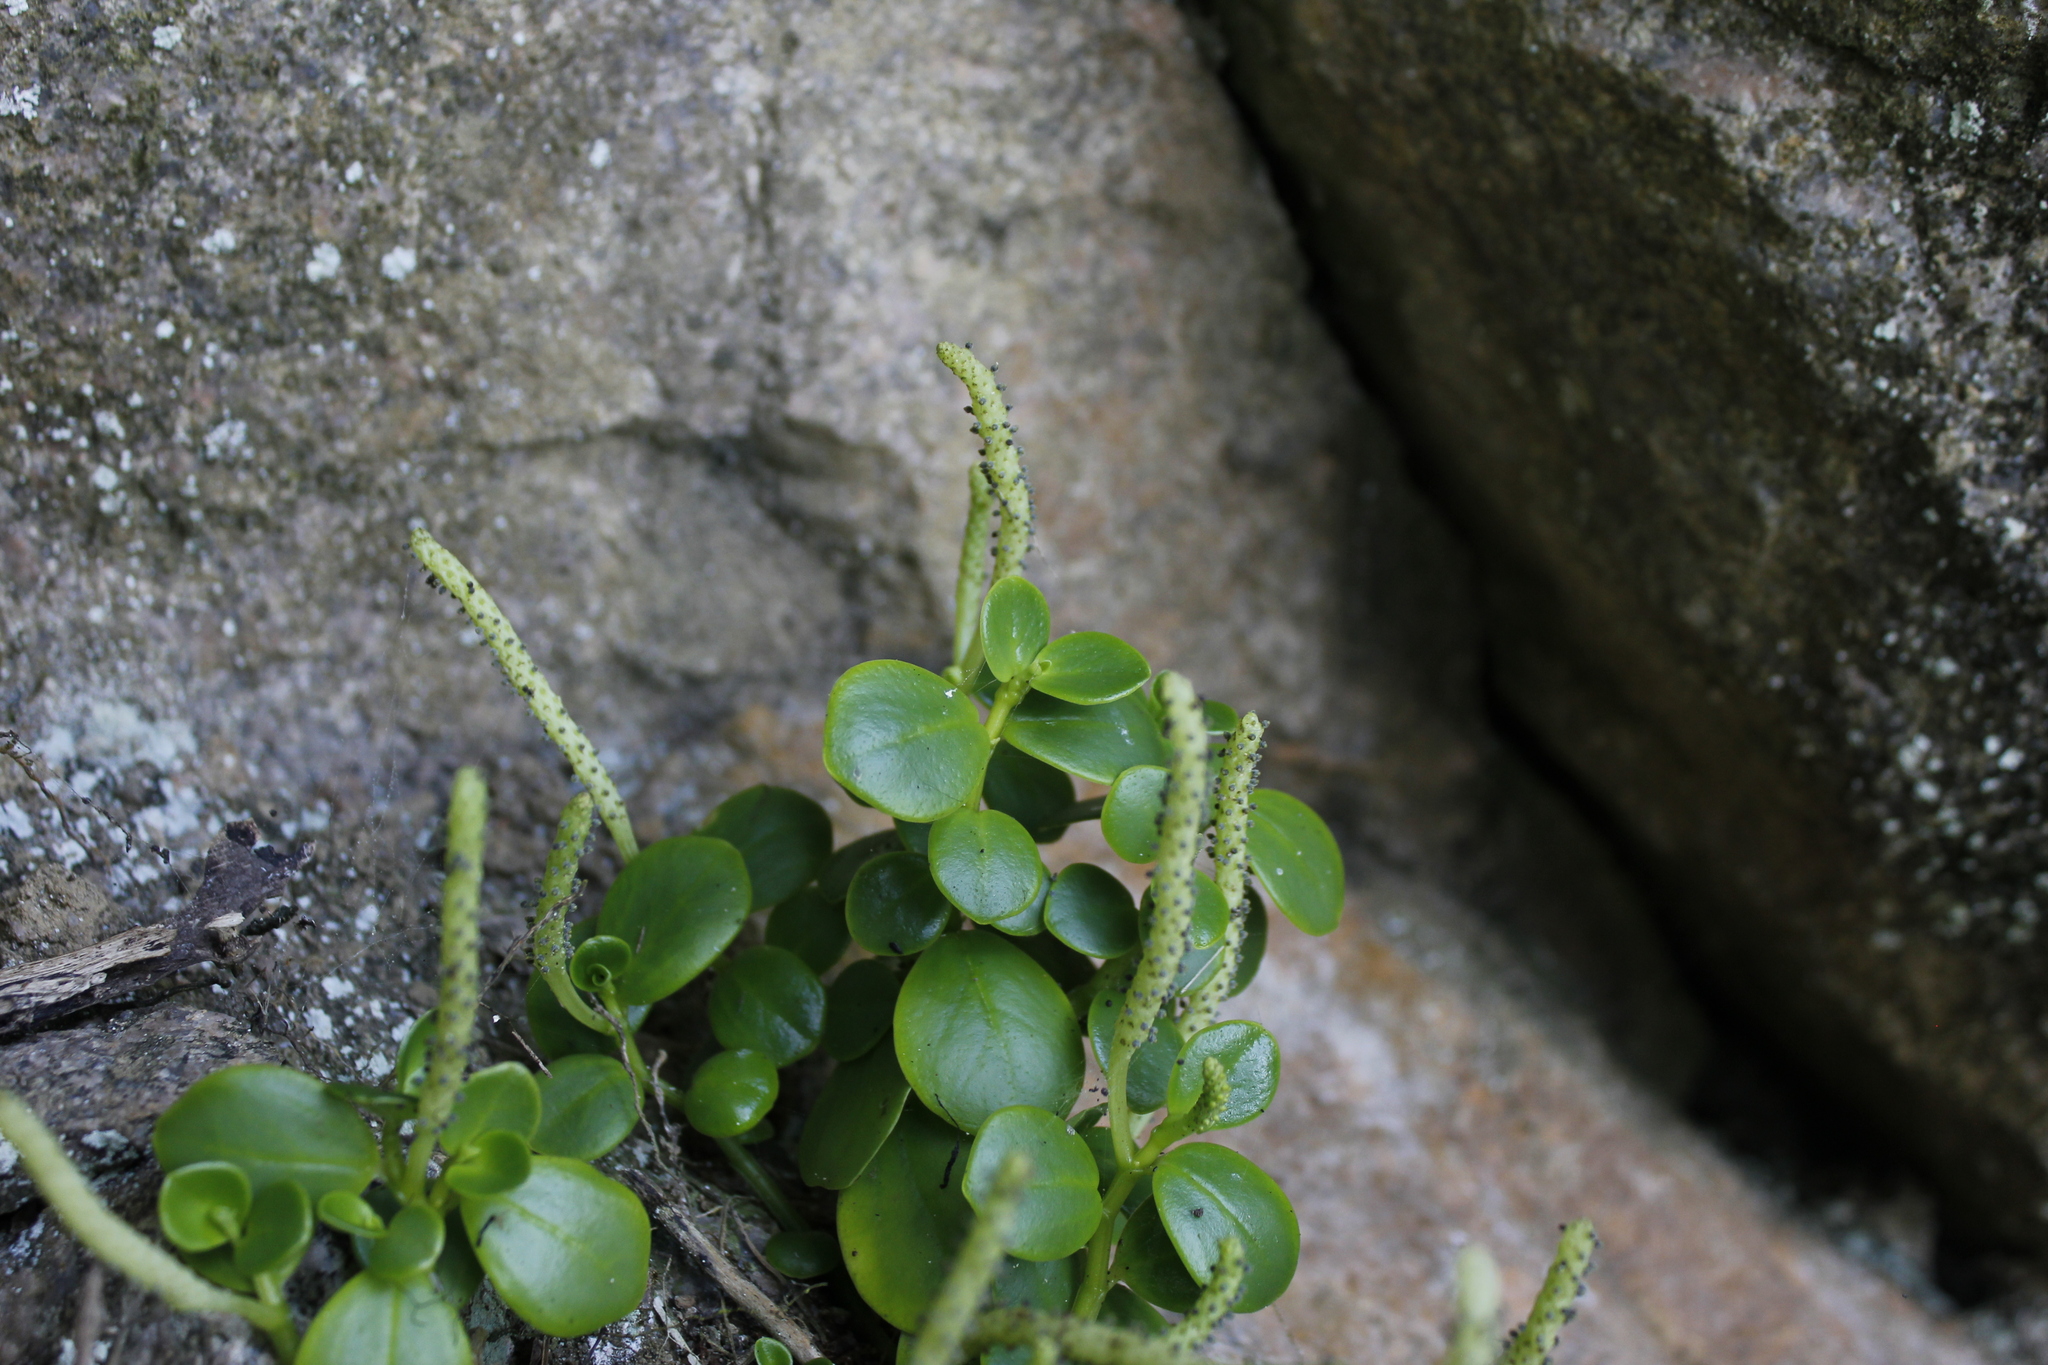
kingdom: Plantae
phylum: Tracheophyta
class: Magnoliopsida
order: Piperales
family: Piperaceae
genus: Peperomia
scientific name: Peperomia urvilleana
